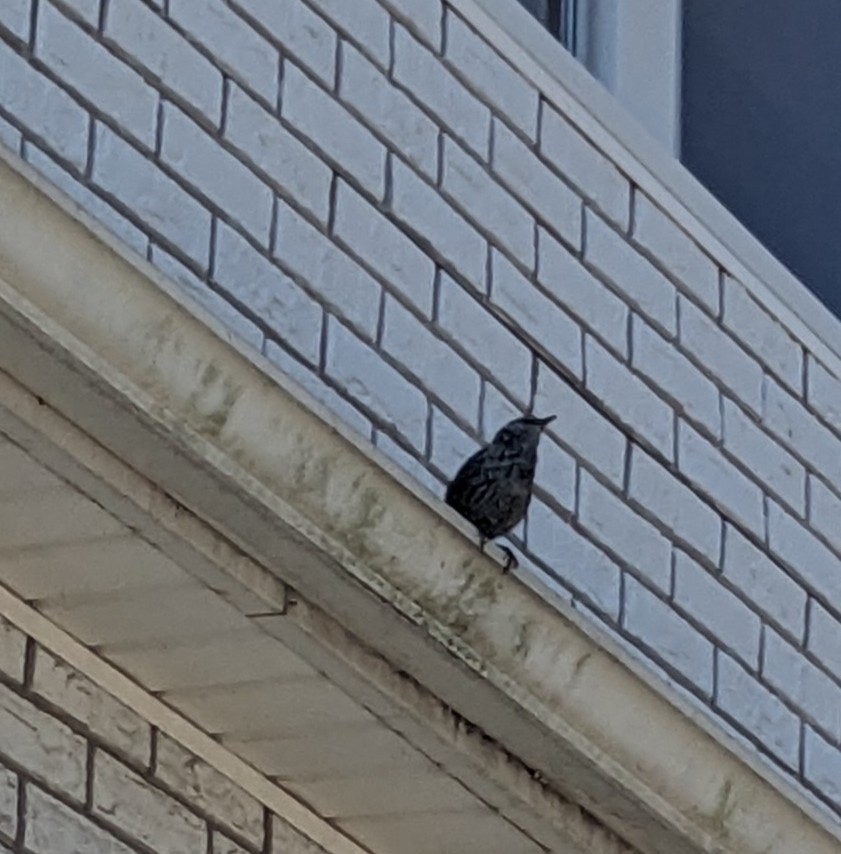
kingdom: Animalia
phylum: Chordata
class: Aves
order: Passeriformes
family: Sturnidae
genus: Sturnus
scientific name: Sturnus vulgaris
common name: Common starling
